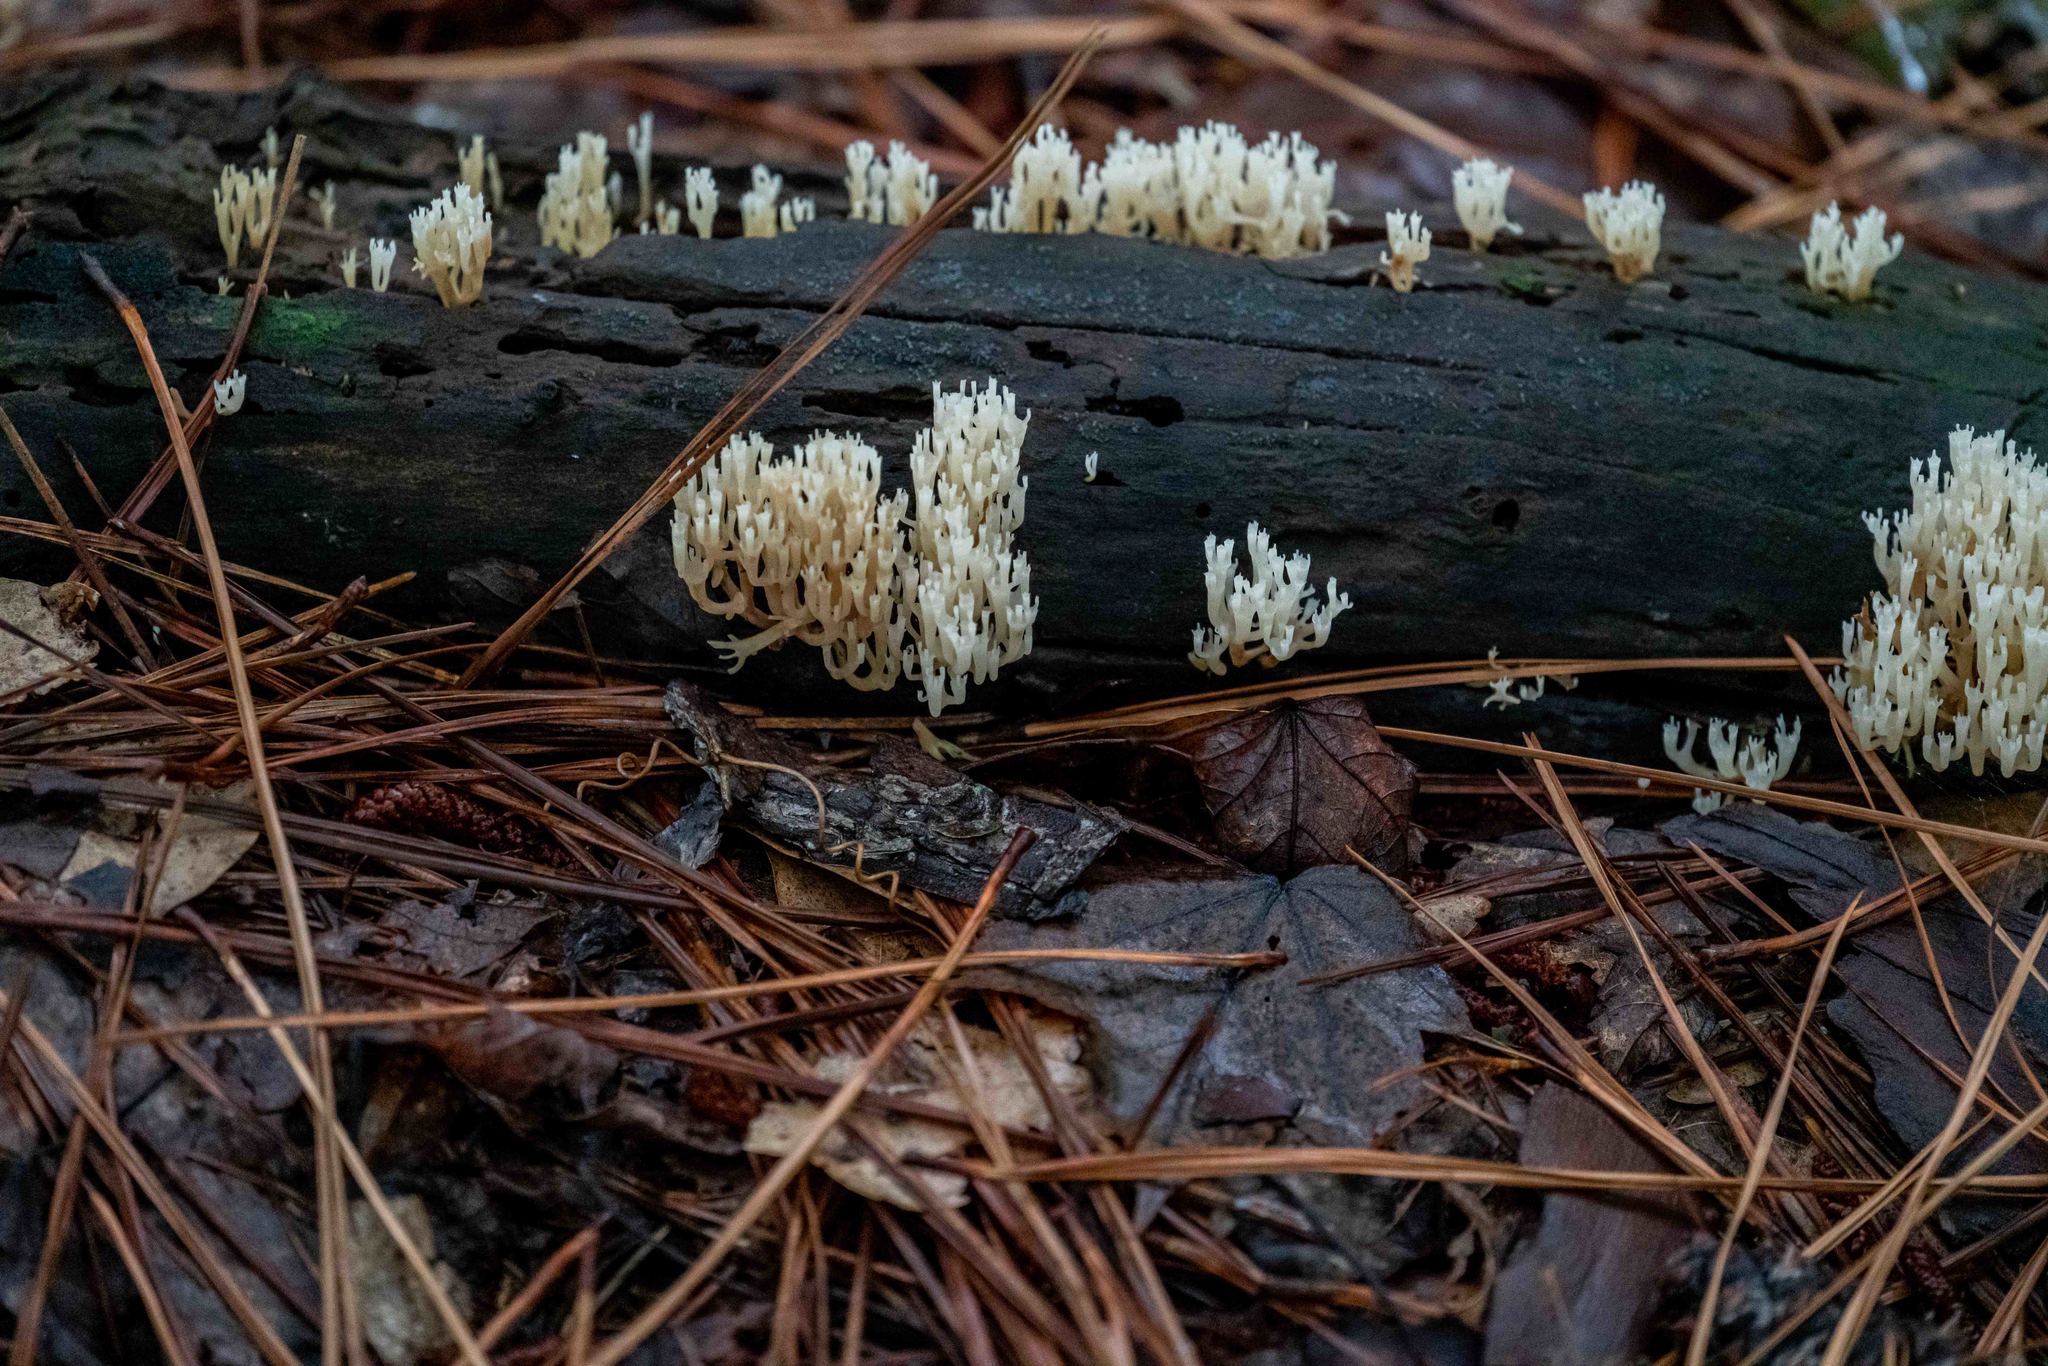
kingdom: Fungi
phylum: Basidiomycota
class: Agaricomycetes
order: Russulales
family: Auriscalpiaceae
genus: Artomyces
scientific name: Artomyces pyxidatus
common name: Crown-tipped coral fungus
